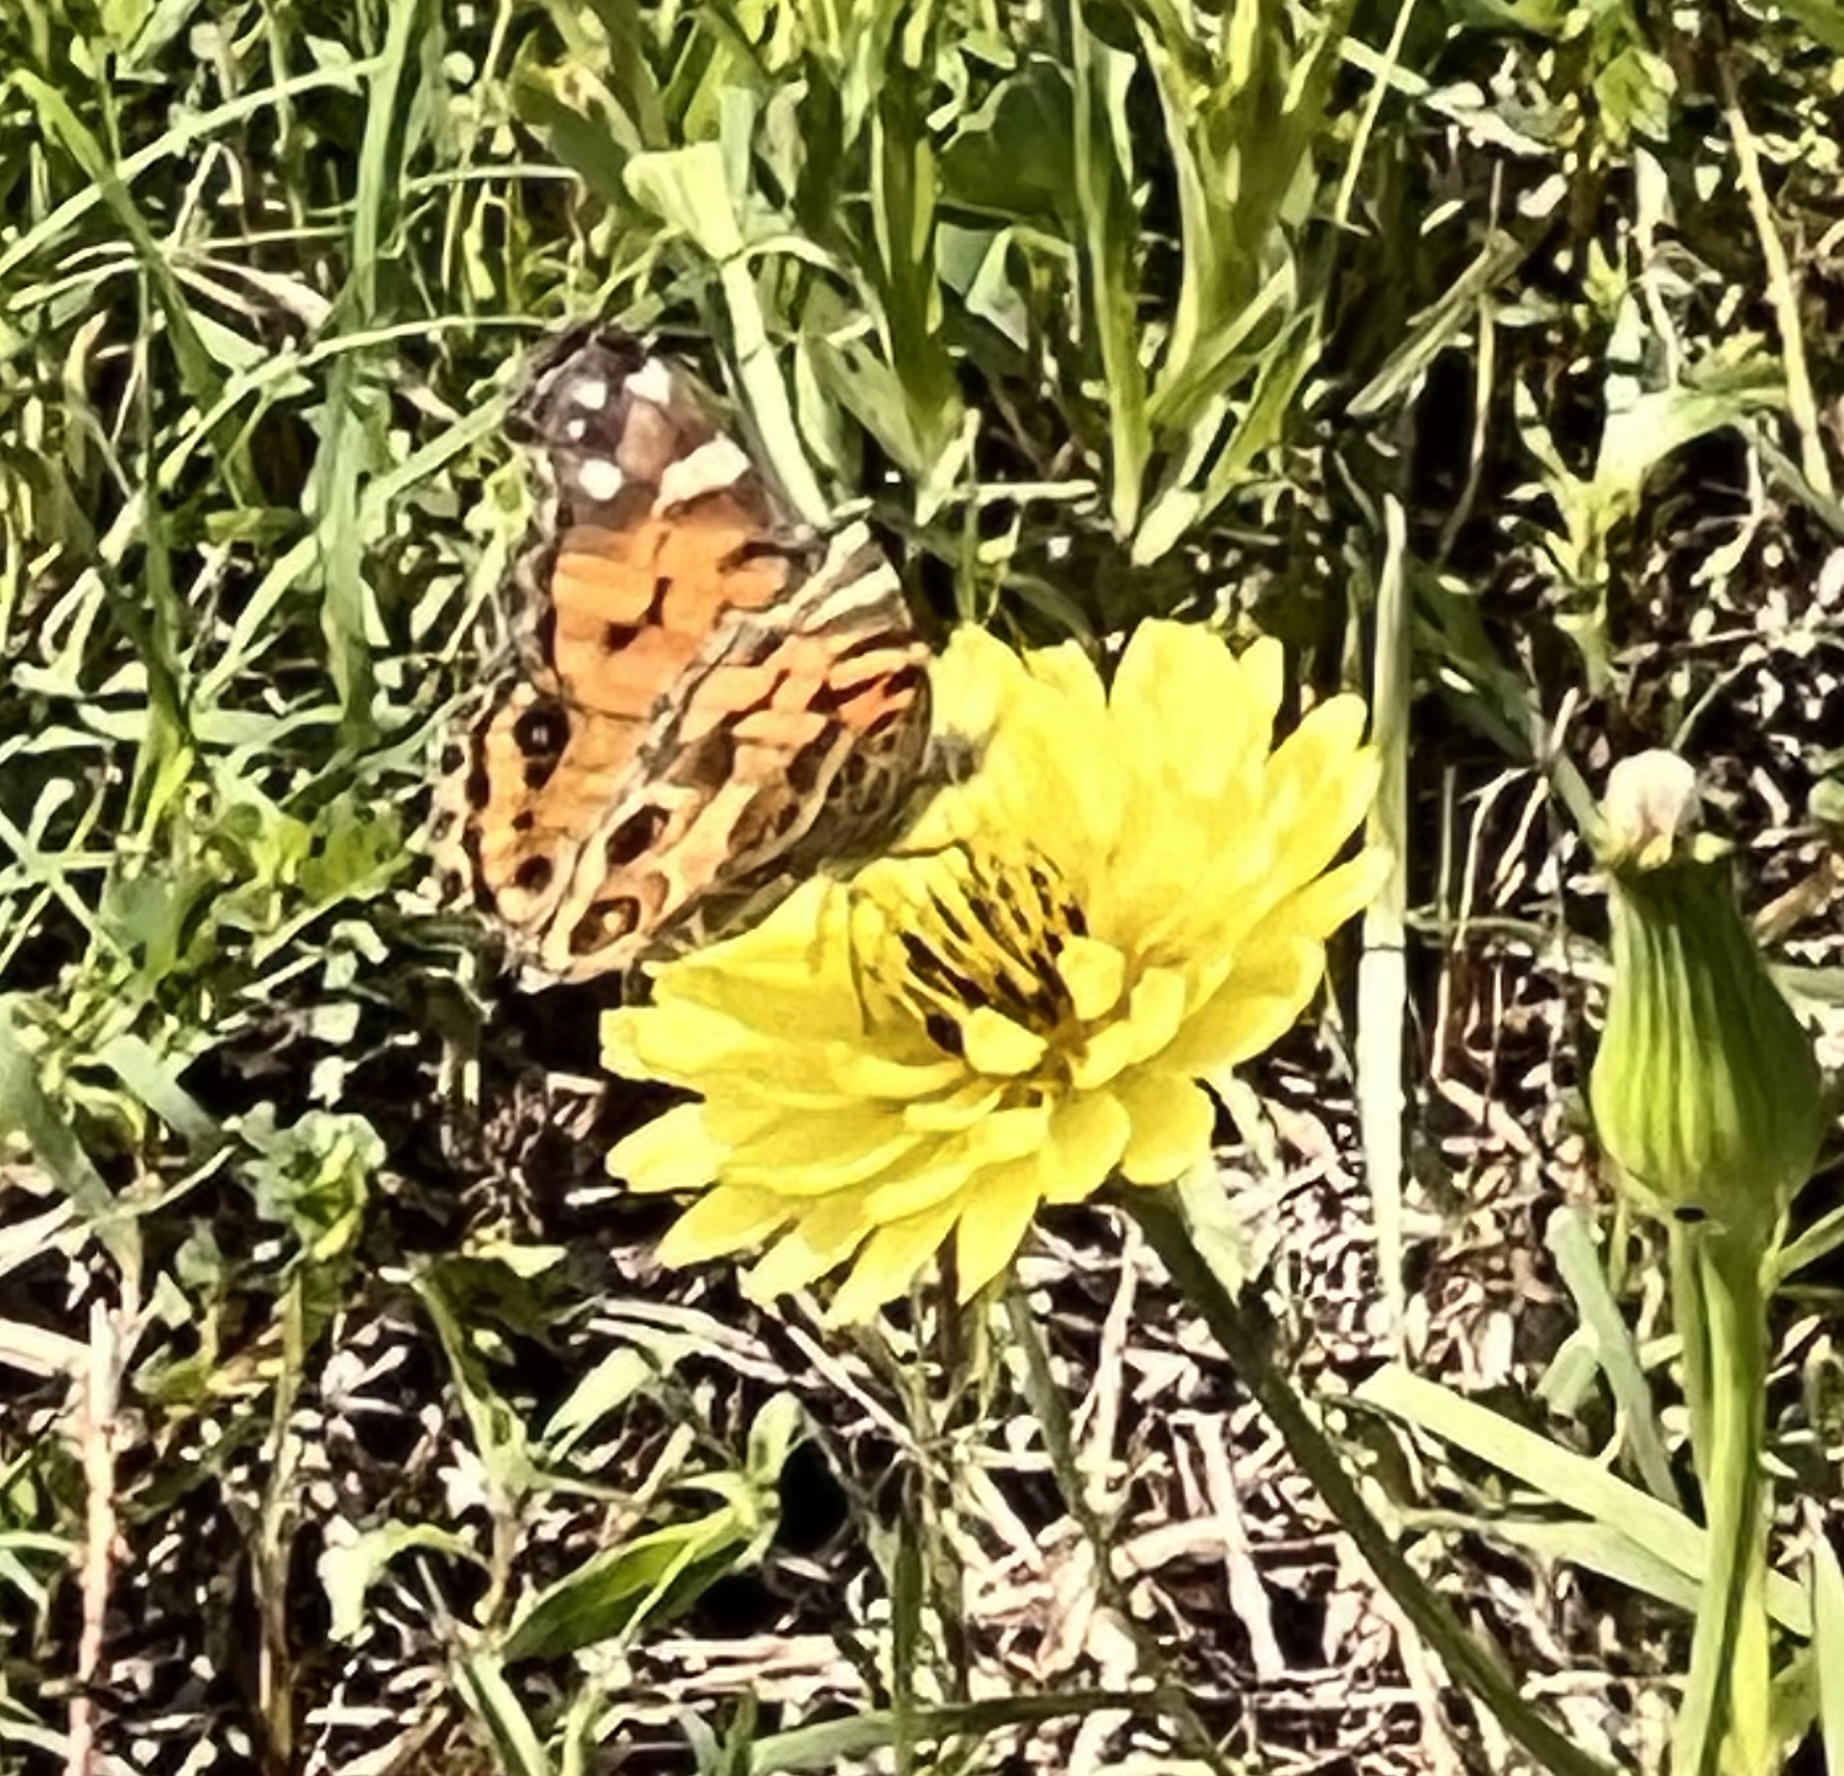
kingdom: Animalia
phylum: Arthropoda
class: Insecta
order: Lepidoptera
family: Nymphalidae
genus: Vanessa
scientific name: Vanessa virginiensis
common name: American lady
